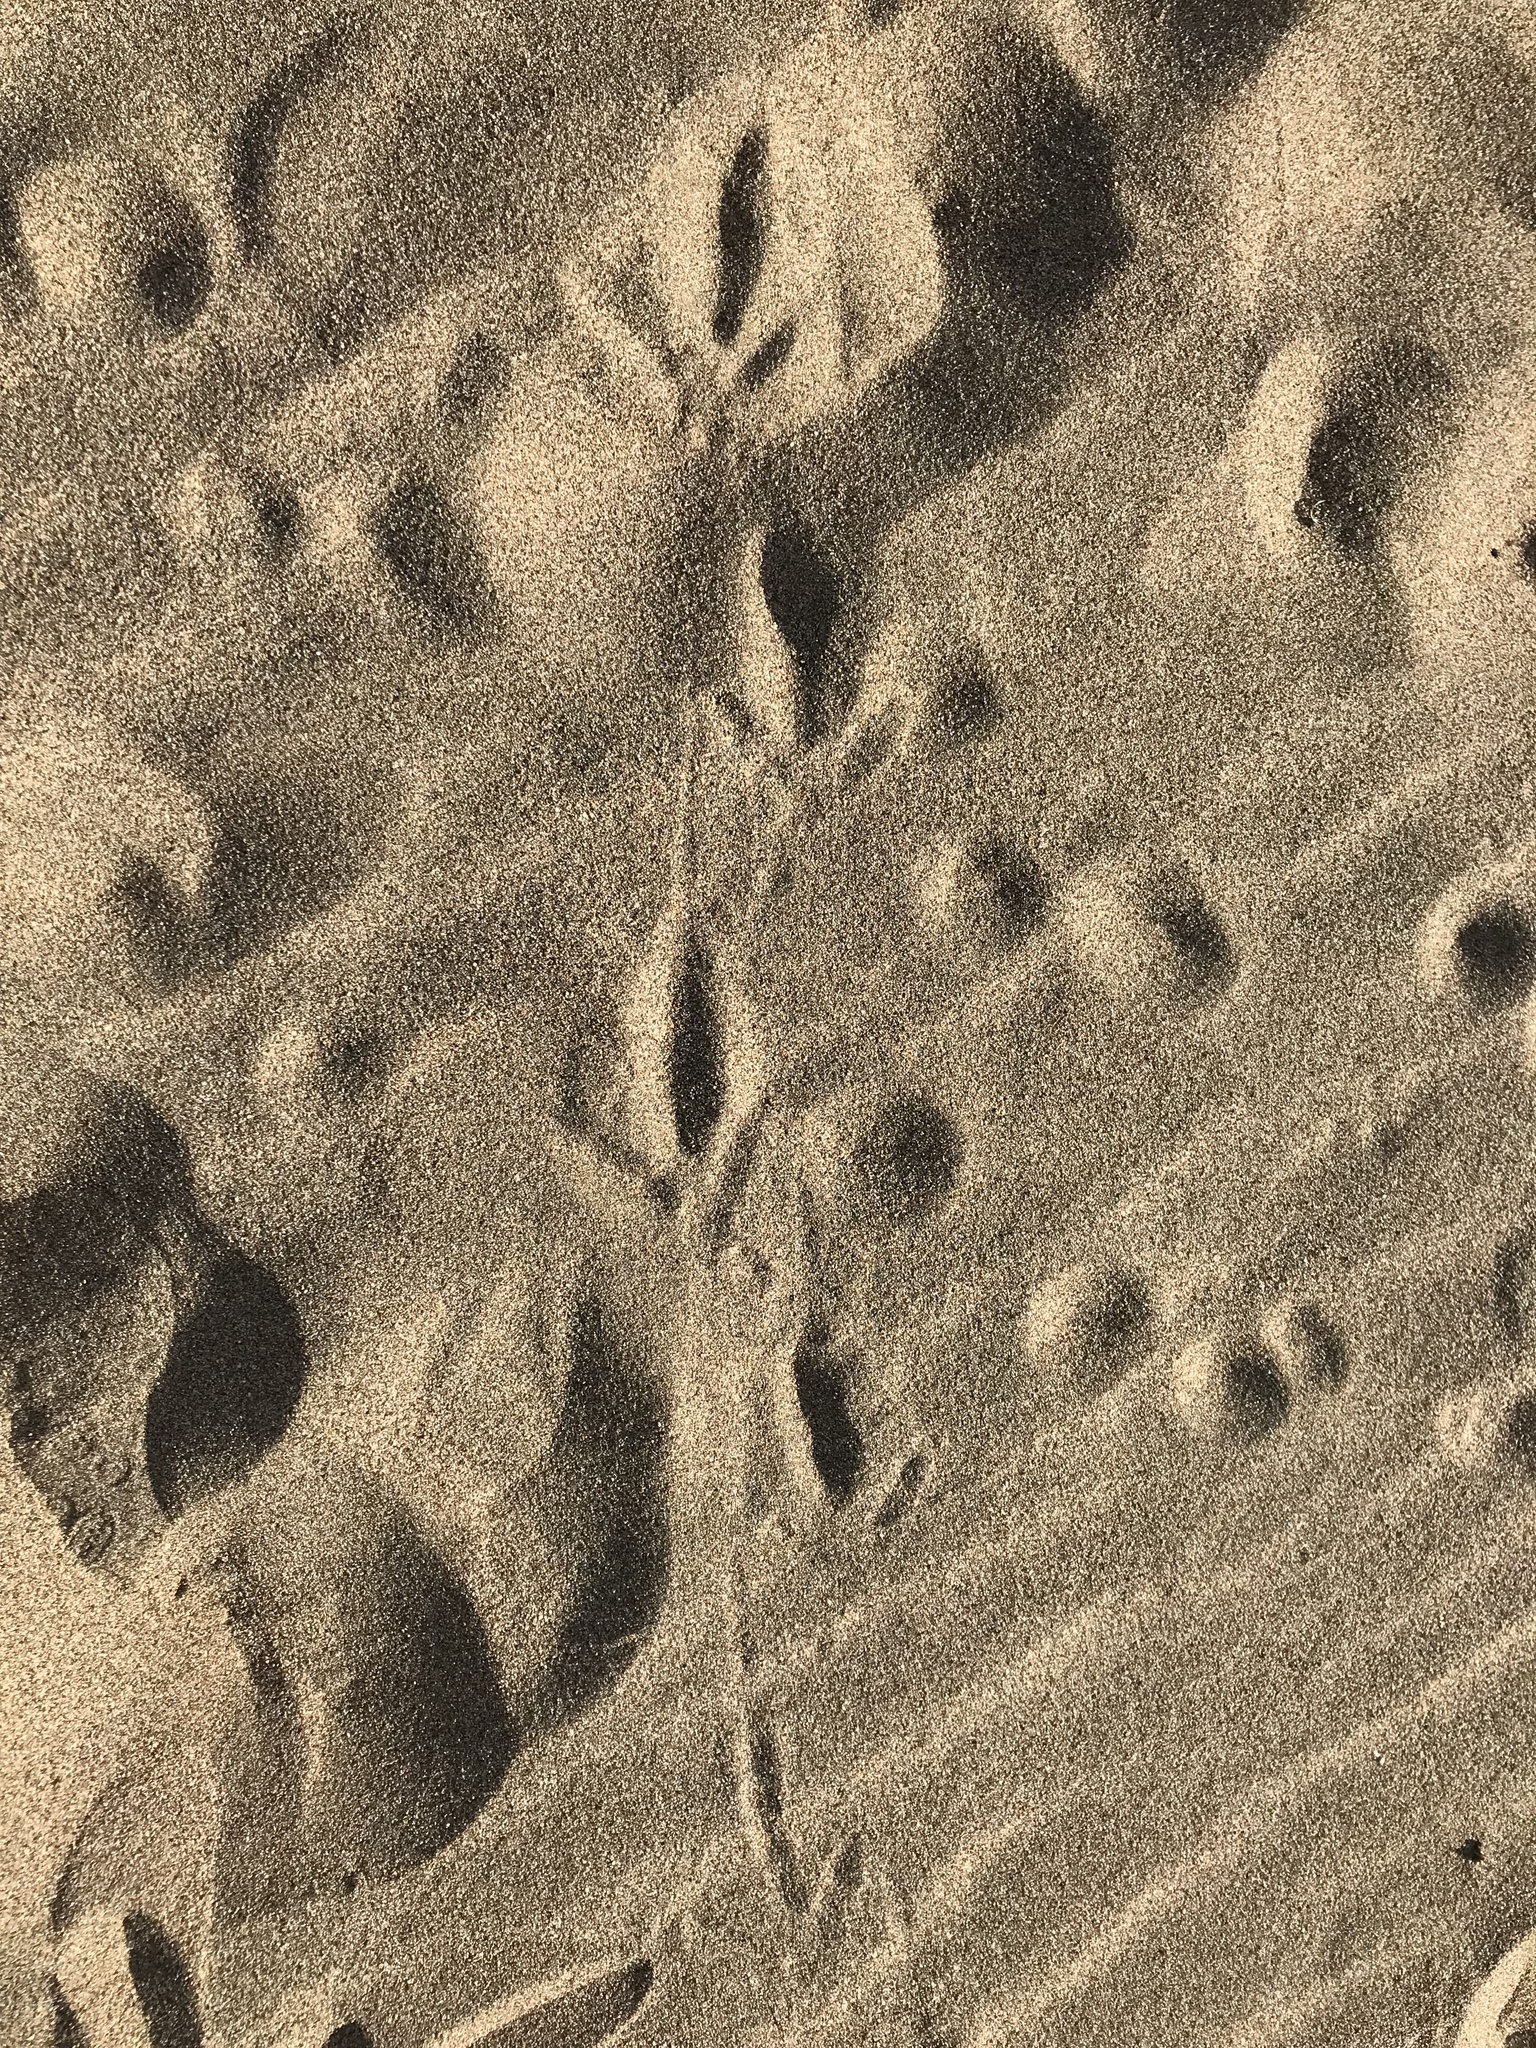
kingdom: Animalia
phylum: Chordata
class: Aves
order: Accipitriformes
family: Cathartidae
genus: Cathartes
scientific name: Cathartes aura
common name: Turkey vulture
